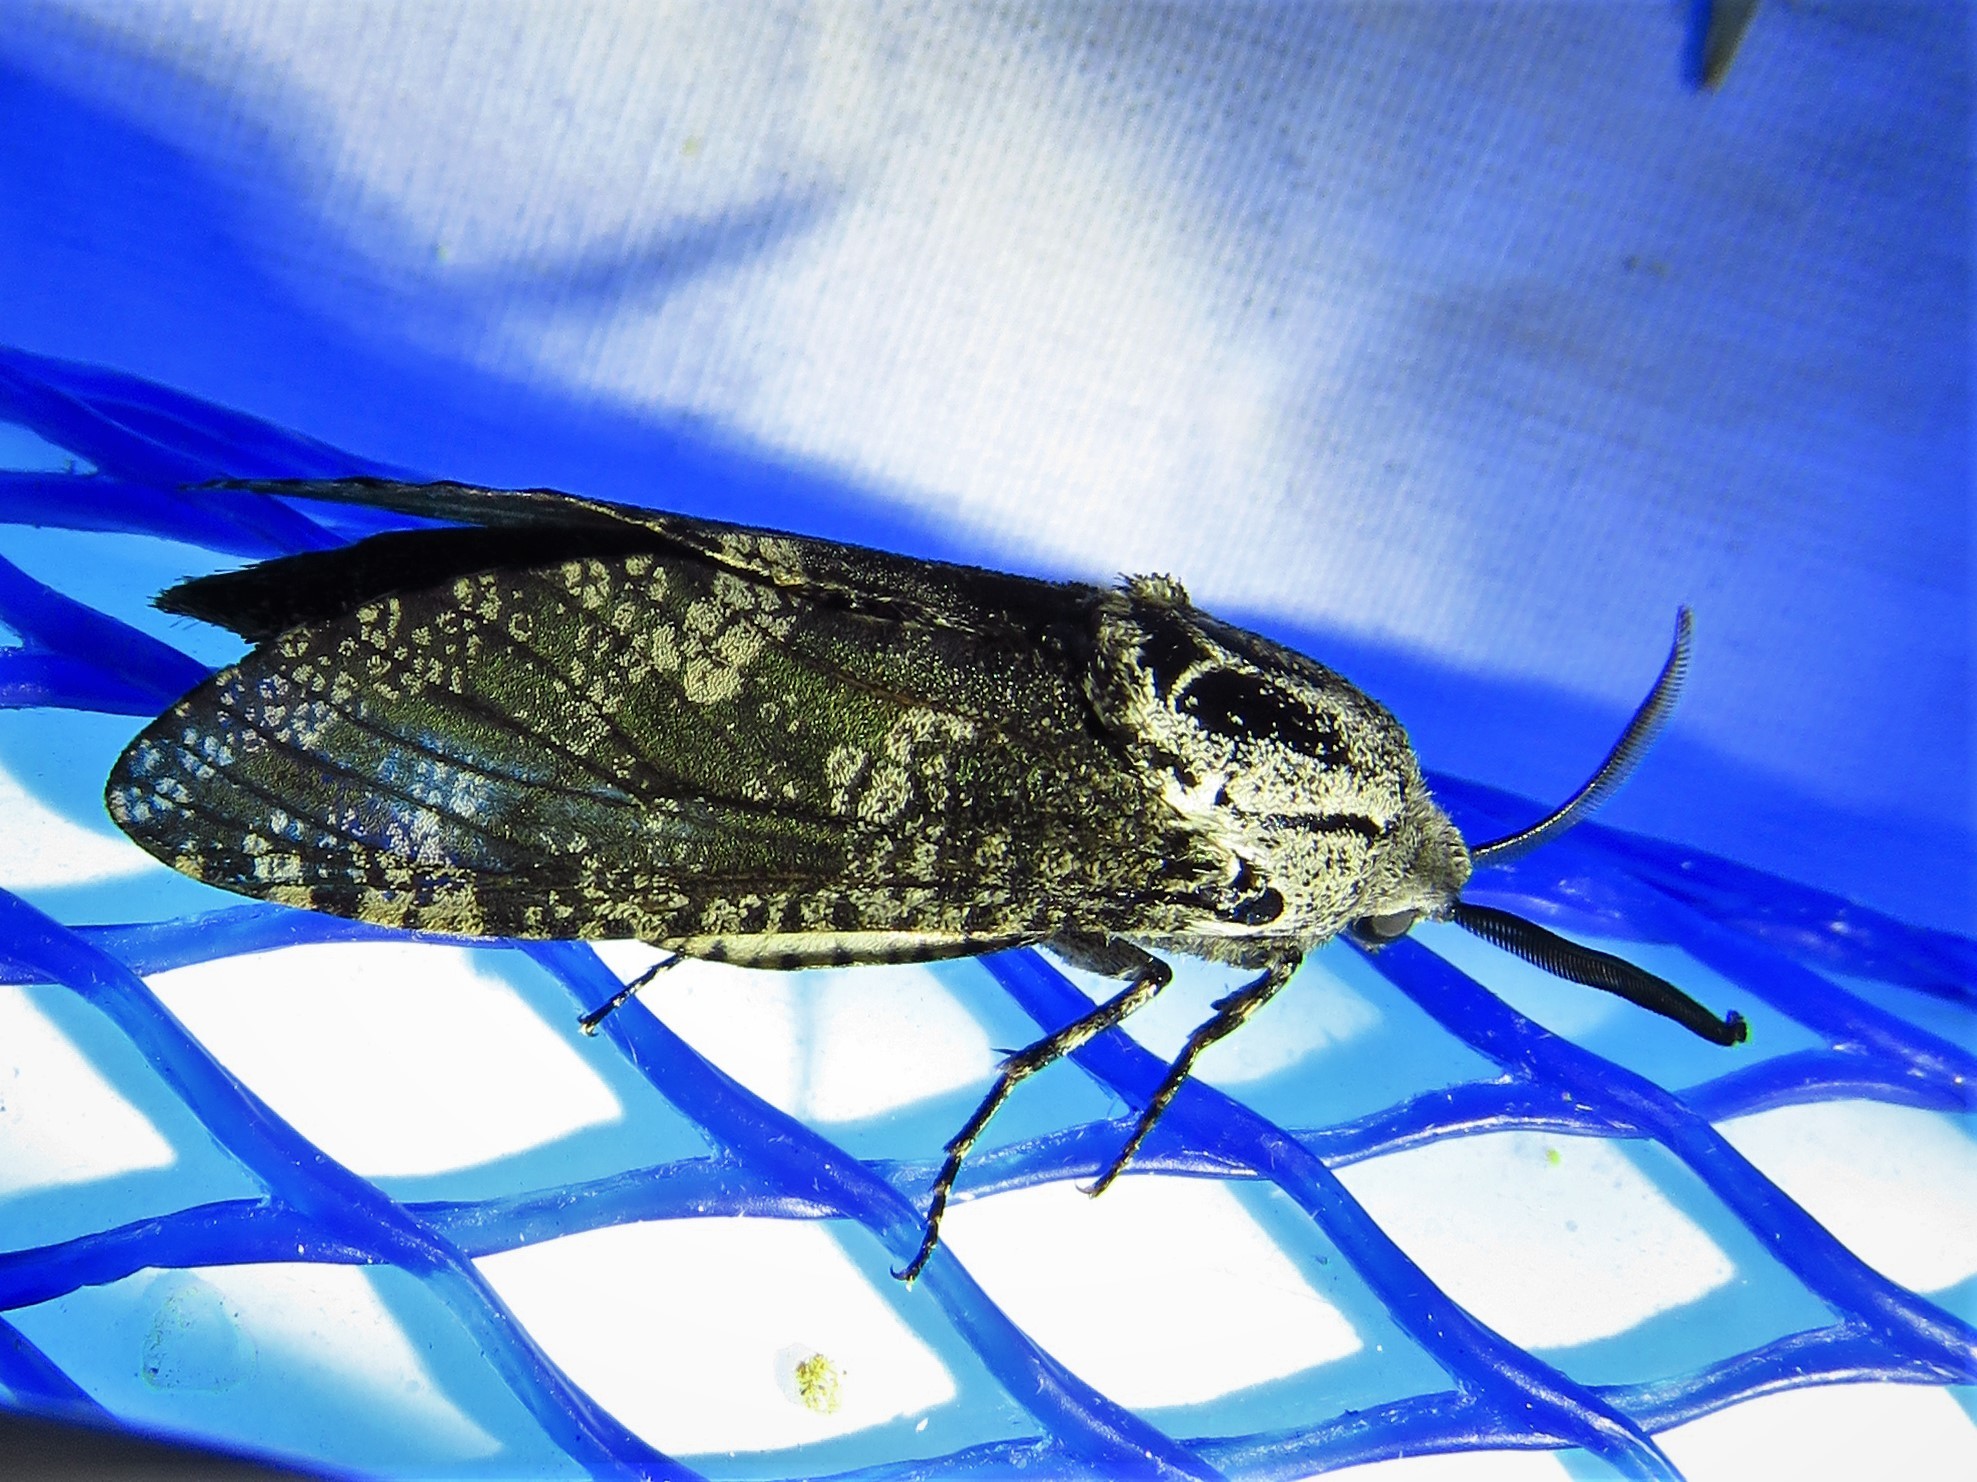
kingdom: Animalia
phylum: Arthropoda
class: Insecta
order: Lepidoptera
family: Cossidae
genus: Prionoxystus
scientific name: Prionoxystus robiniae
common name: Carpenterworm
